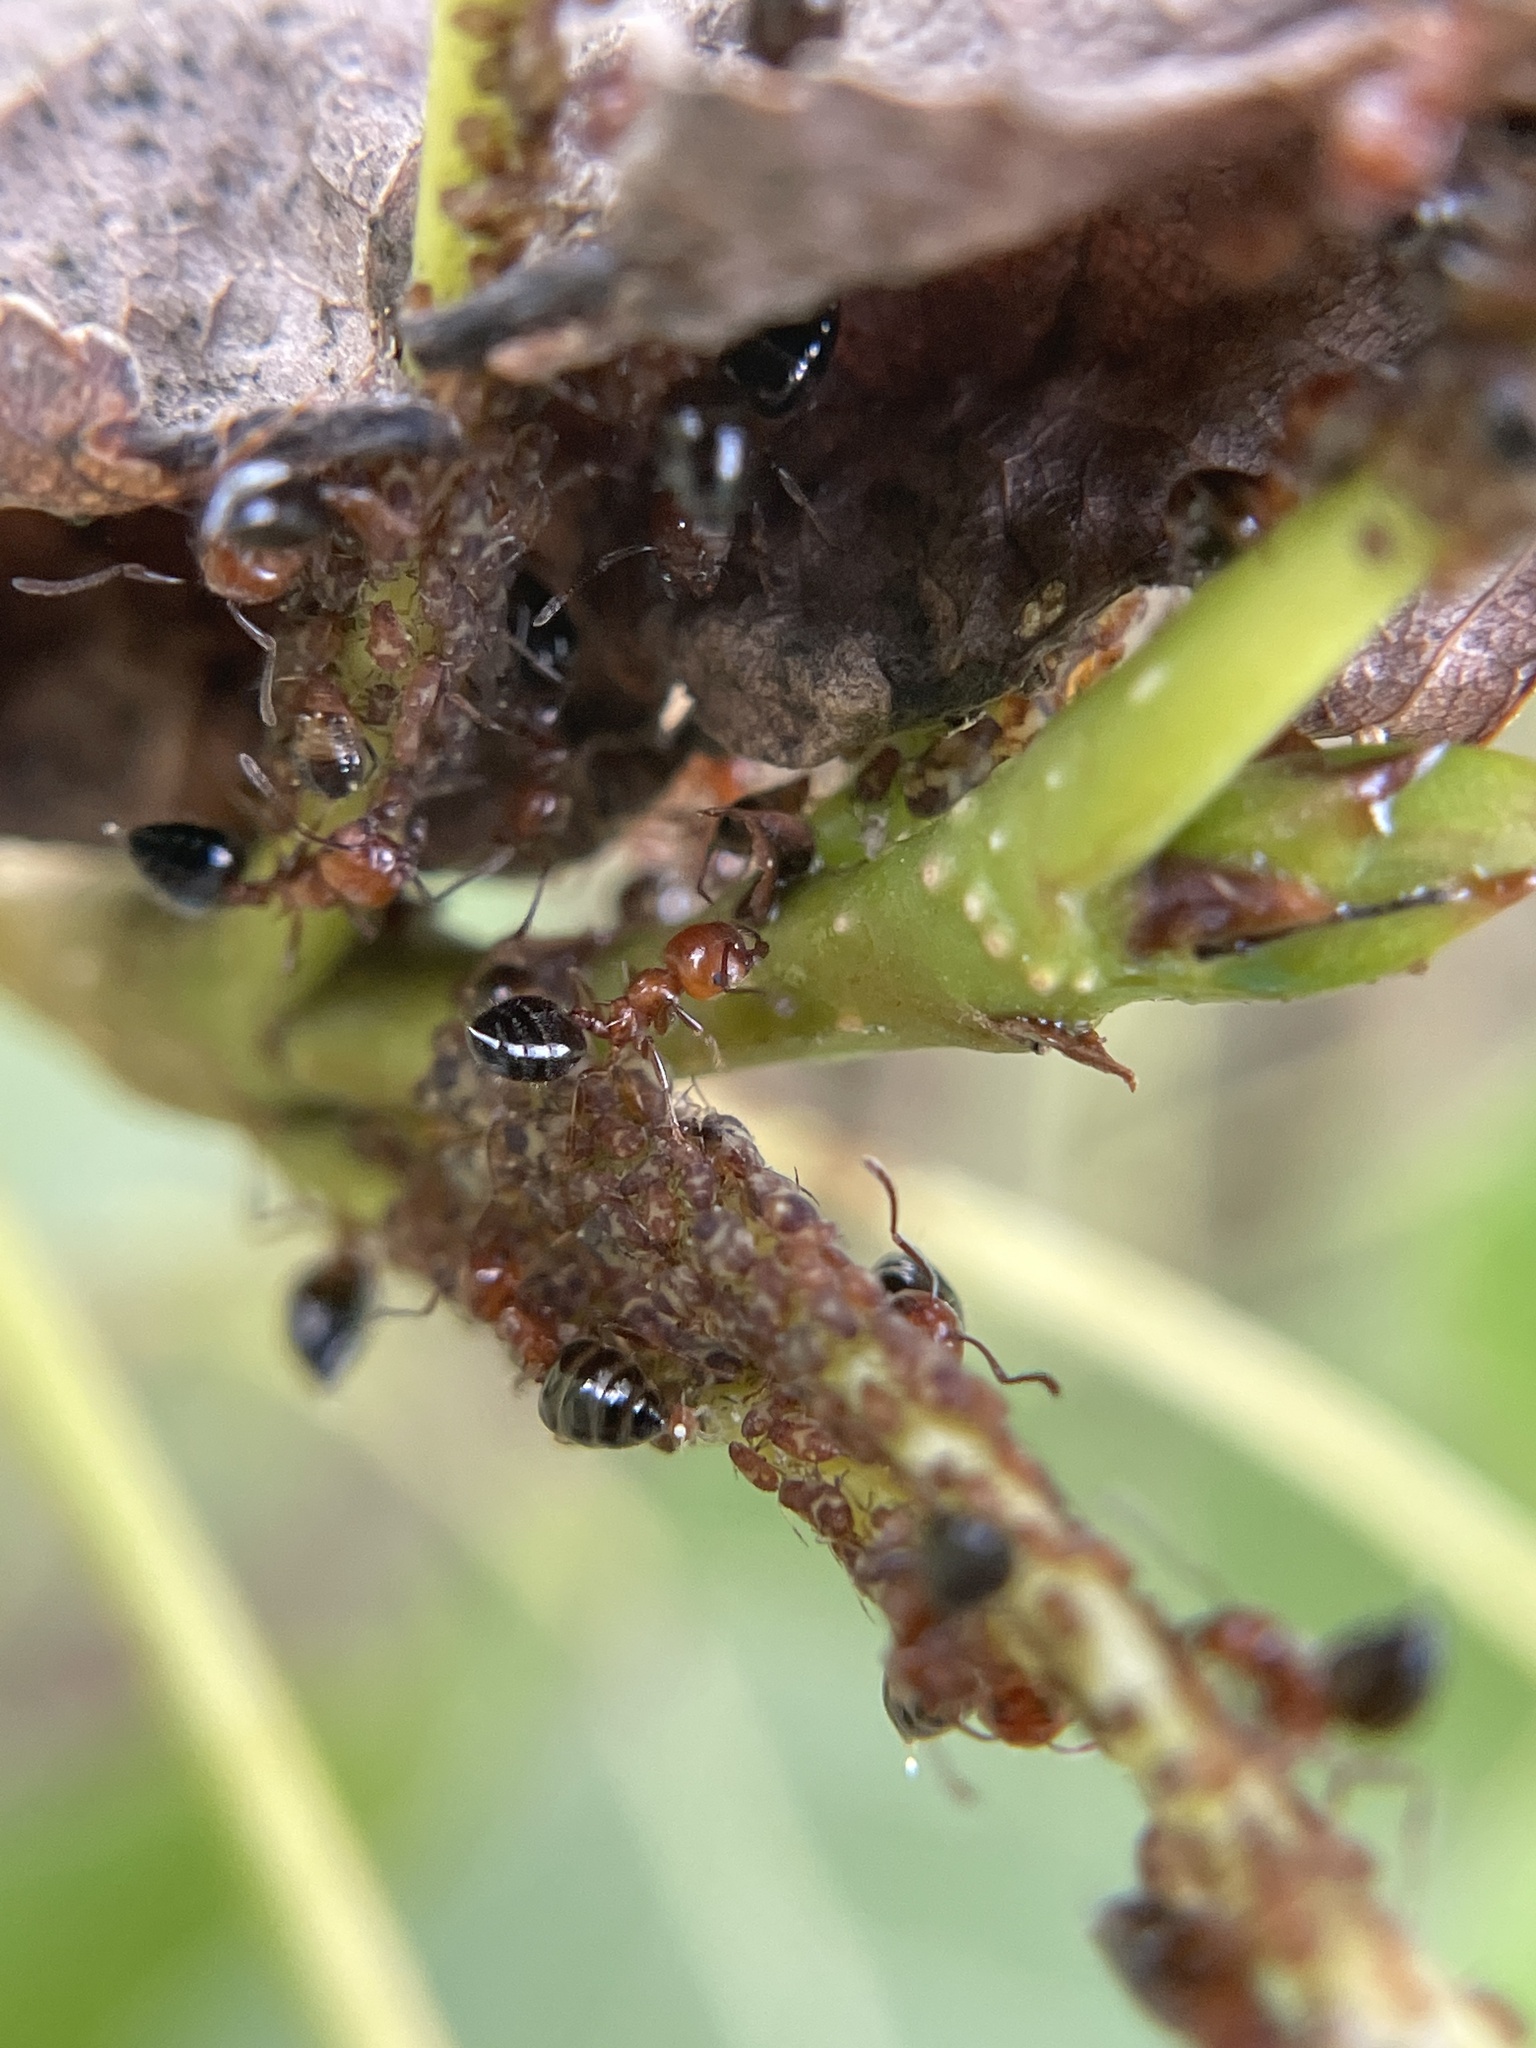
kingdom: Animalia
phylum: Arthropoda
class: Insecta
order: Hymenoptera
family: Formicidae
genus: Crematogaster
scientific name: Crematogaster laeviuscula
